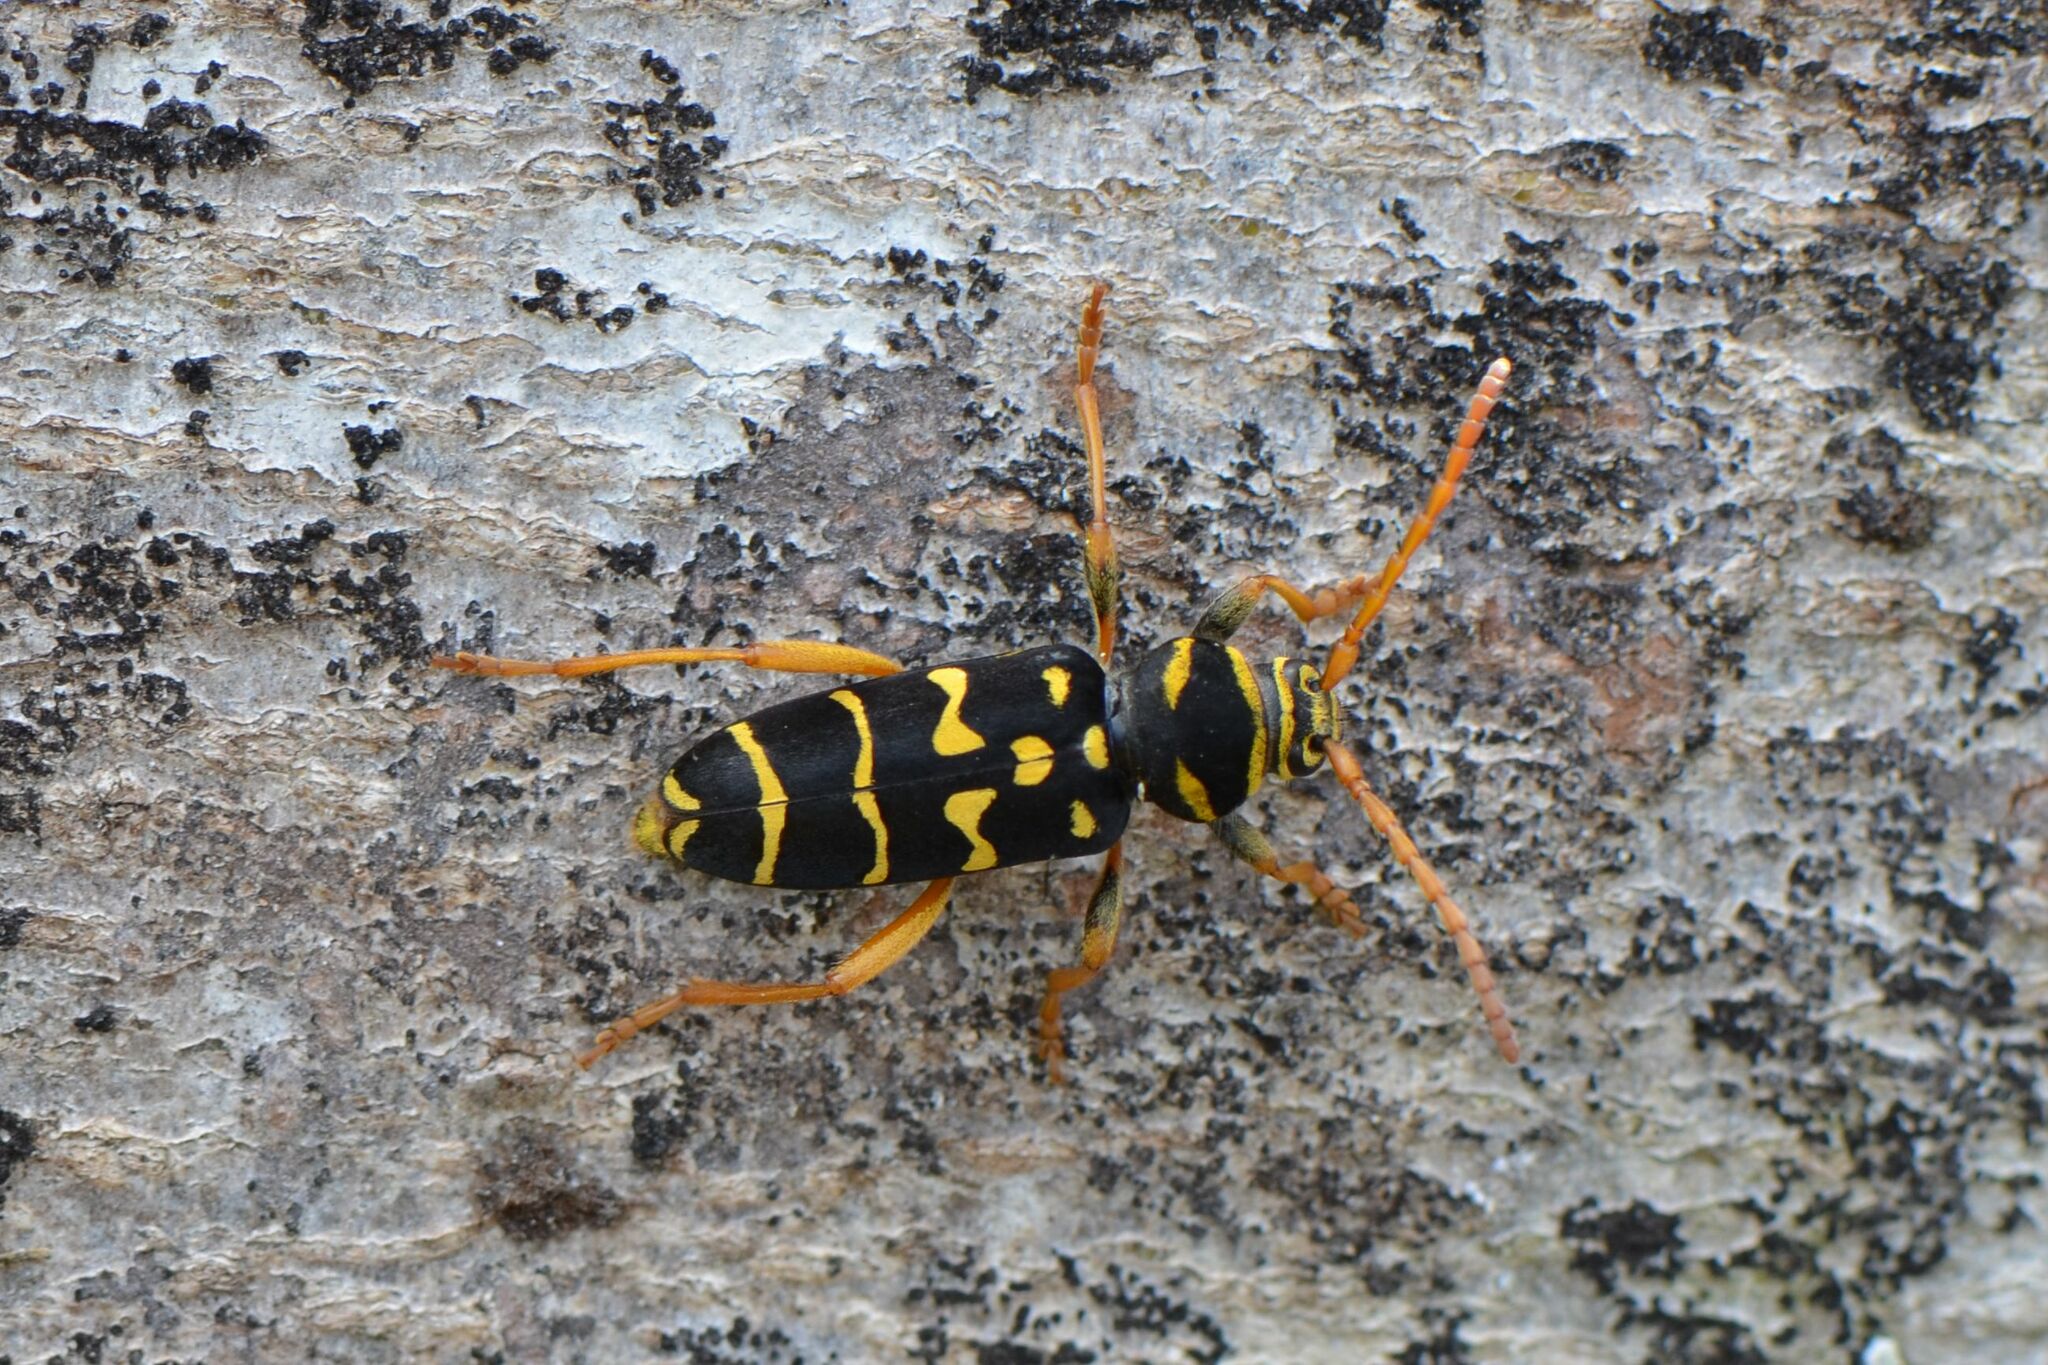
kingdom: Animalia
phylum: Arthropoda
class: Insecta
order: Coleoptera
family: Cerambycidae
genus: Plagionotus
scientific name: Plagionotus arcuatus
